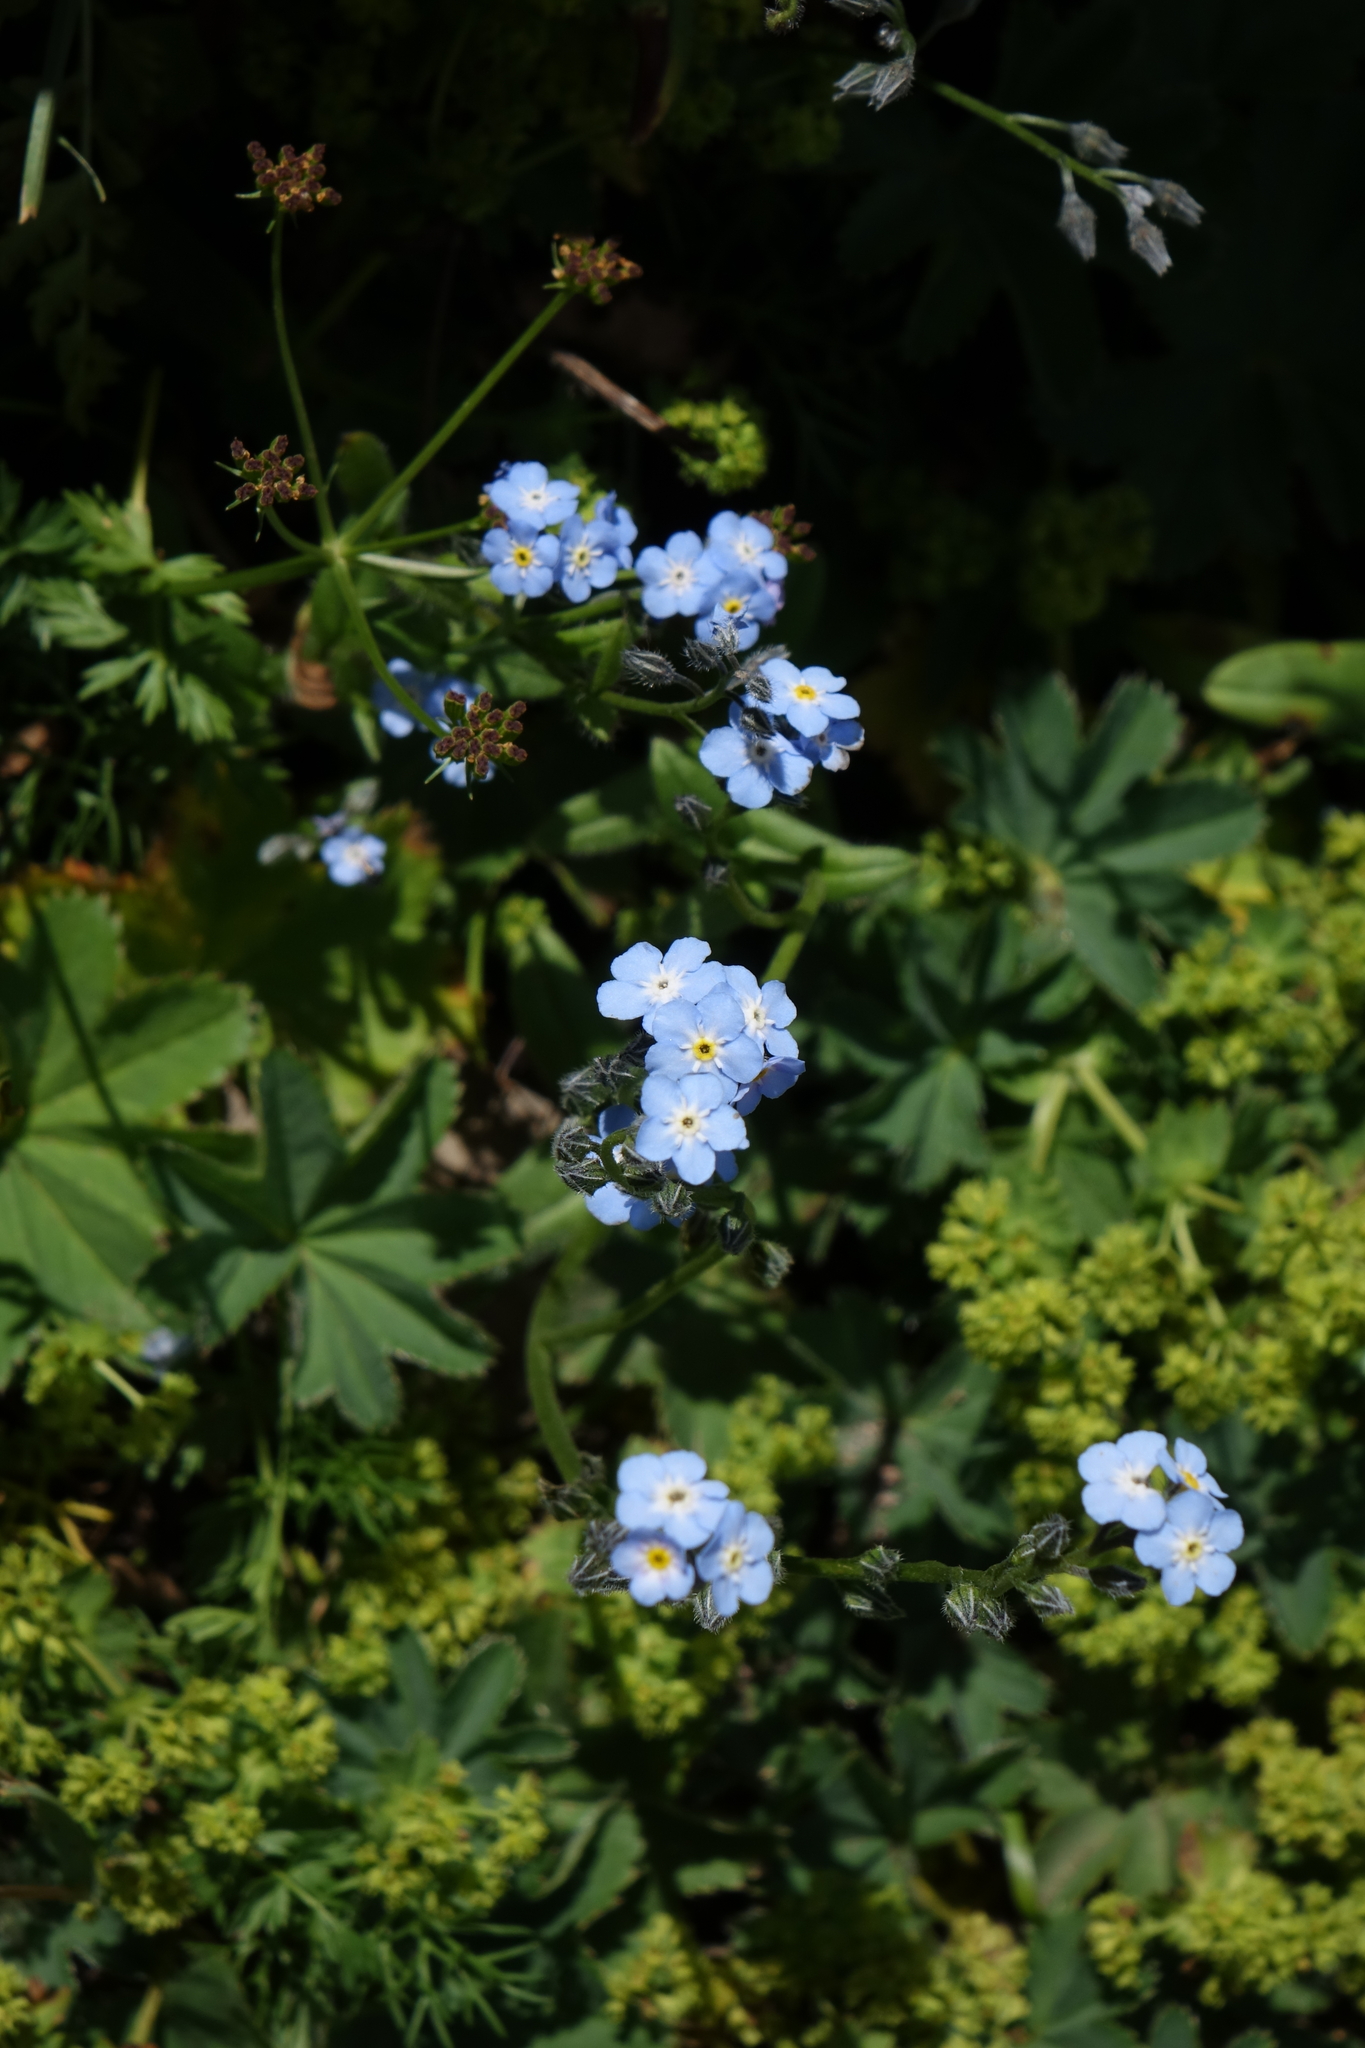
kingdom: Plantae
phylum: Tracheophyta
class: Magnoliopsida
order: Boraginales
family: Boraginaceae
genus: Myosotis
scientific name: Myosotis alpestris
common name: Alpine forget-me-not
